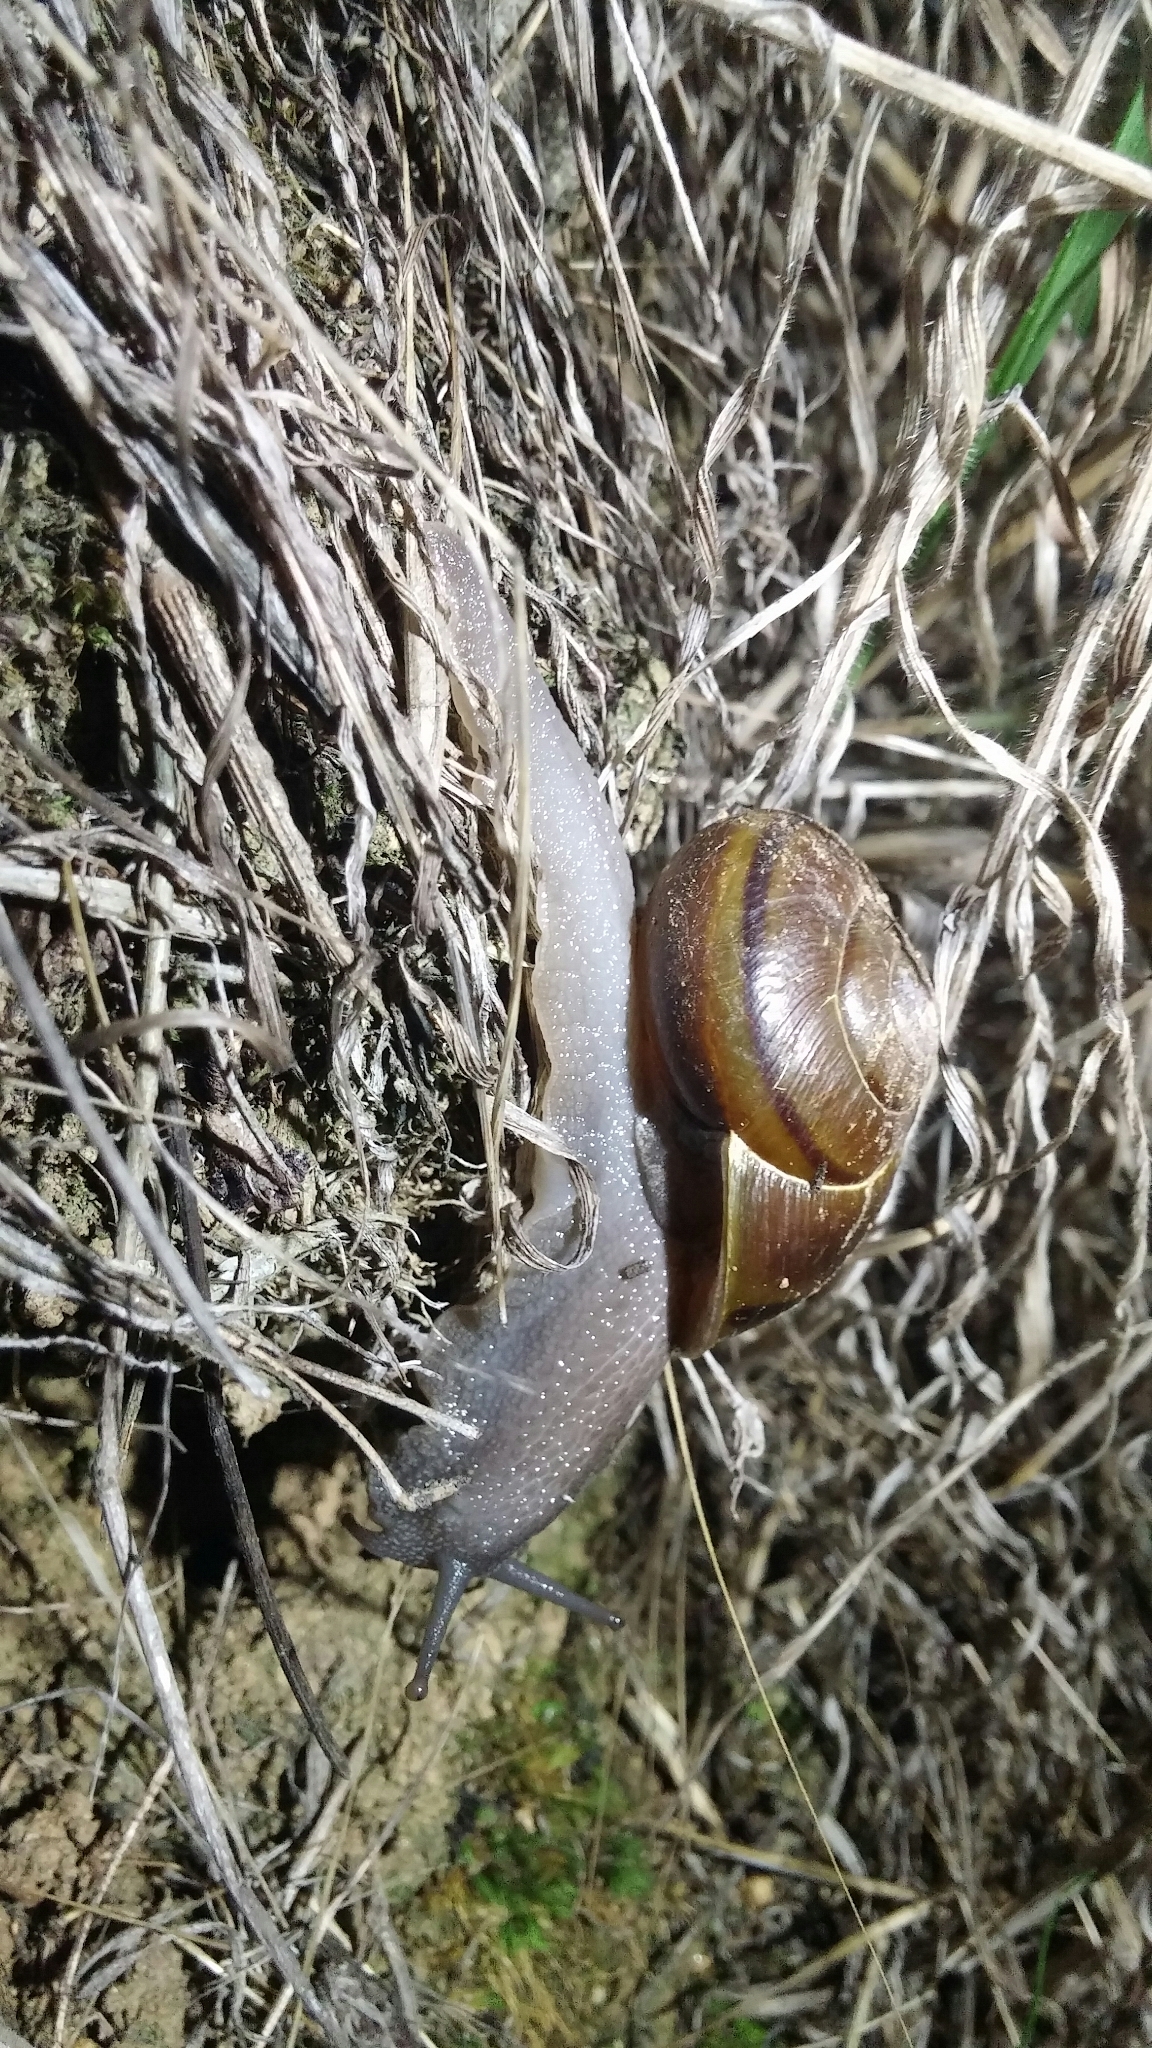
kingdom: Animalia
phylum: Mollusca
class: Gastropoda
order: Stylommatophora
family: Xanthonychidae
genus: Helminthoglypta
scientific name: Helminthoglypta tudiculata
